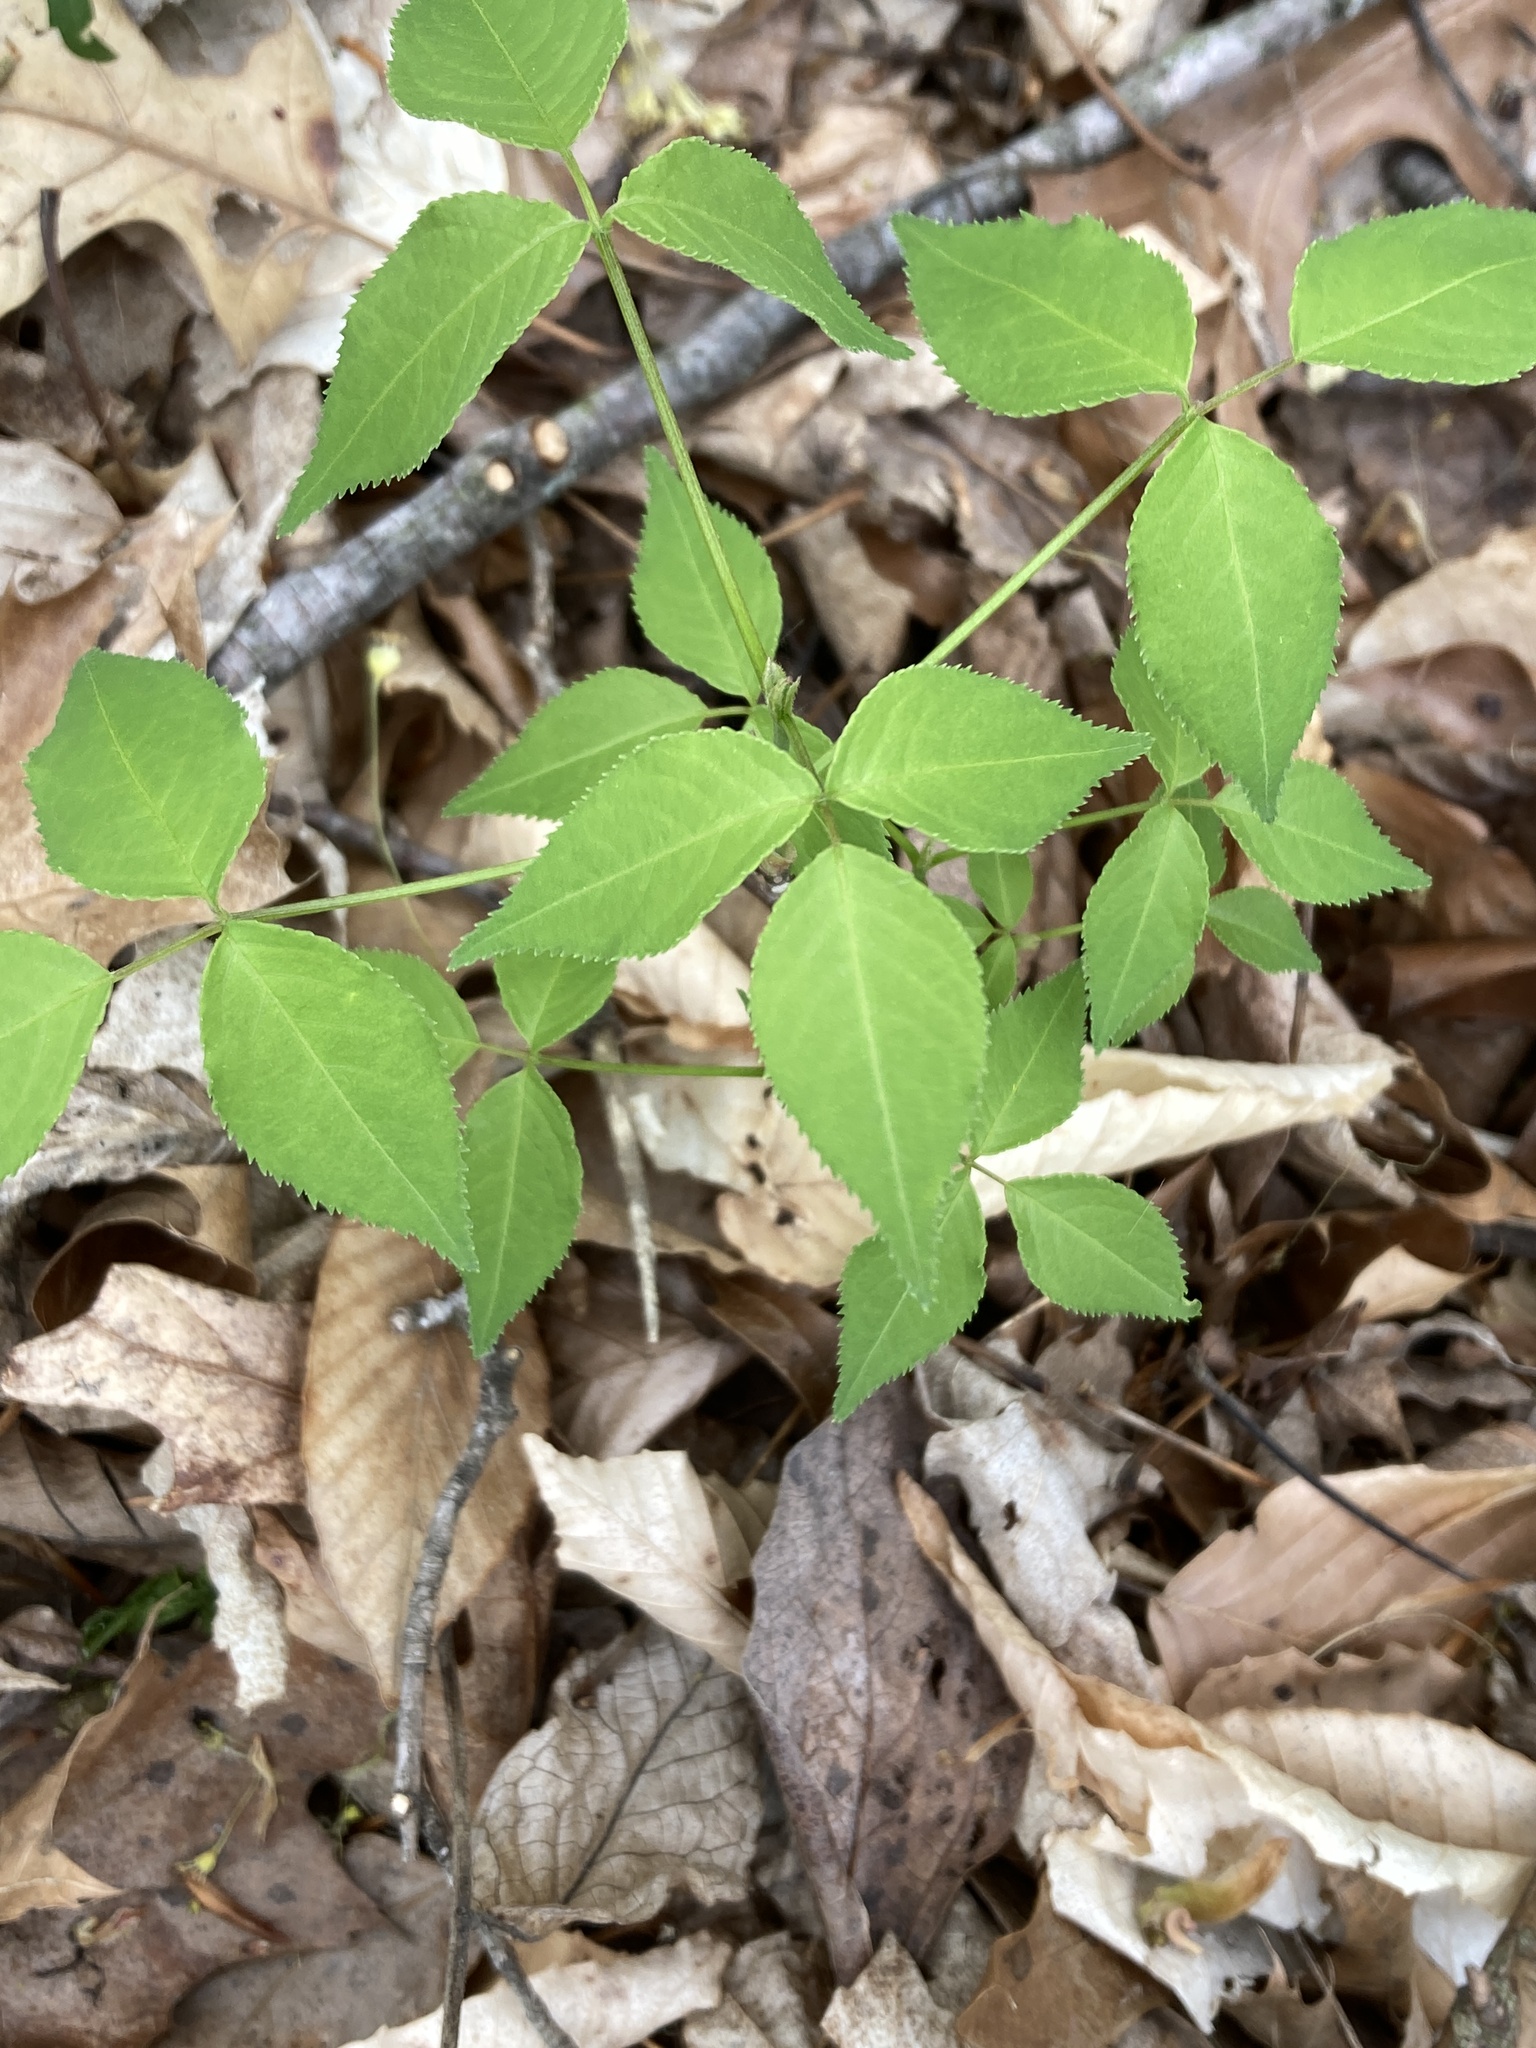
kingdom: Plantae
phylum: Tracheophyta
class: Magnoliopsida
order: Crossosomatales
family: Staphyleaceae
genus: Staphylea
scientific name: Staphylea trifolia
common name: American bladdernut
